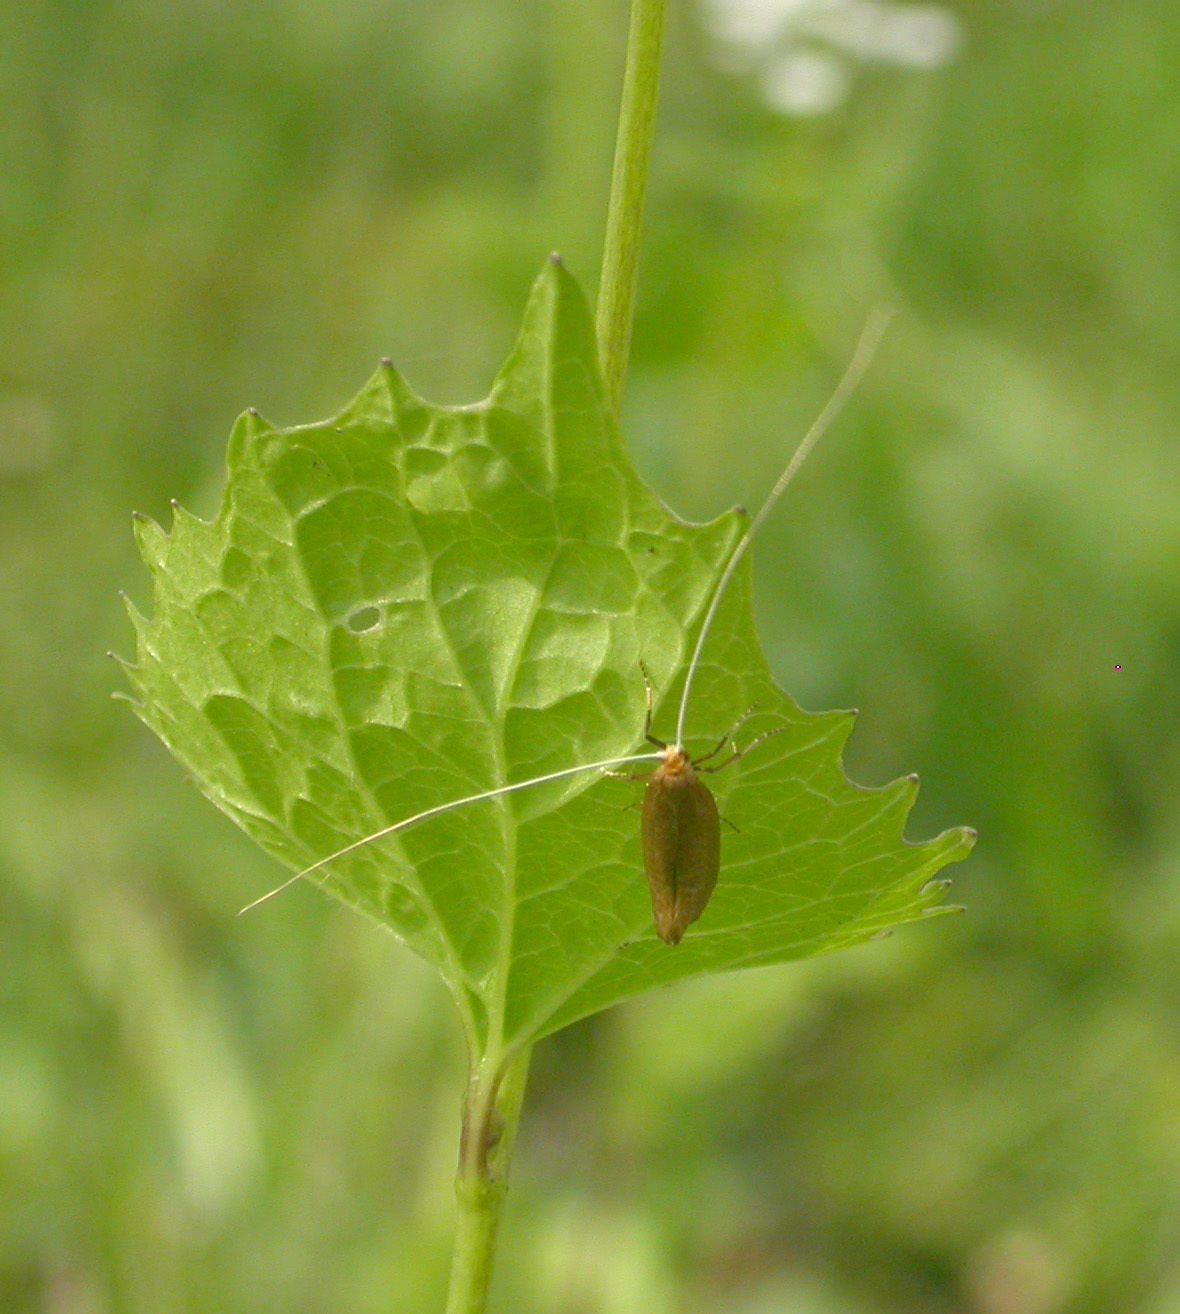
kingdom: Animalia
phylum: Arthropoda
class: Insecta
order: Lepidoptera
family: Adelidae
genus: Nematopogon
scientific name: Nematopogon swammerdamella
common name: Large long-horn
